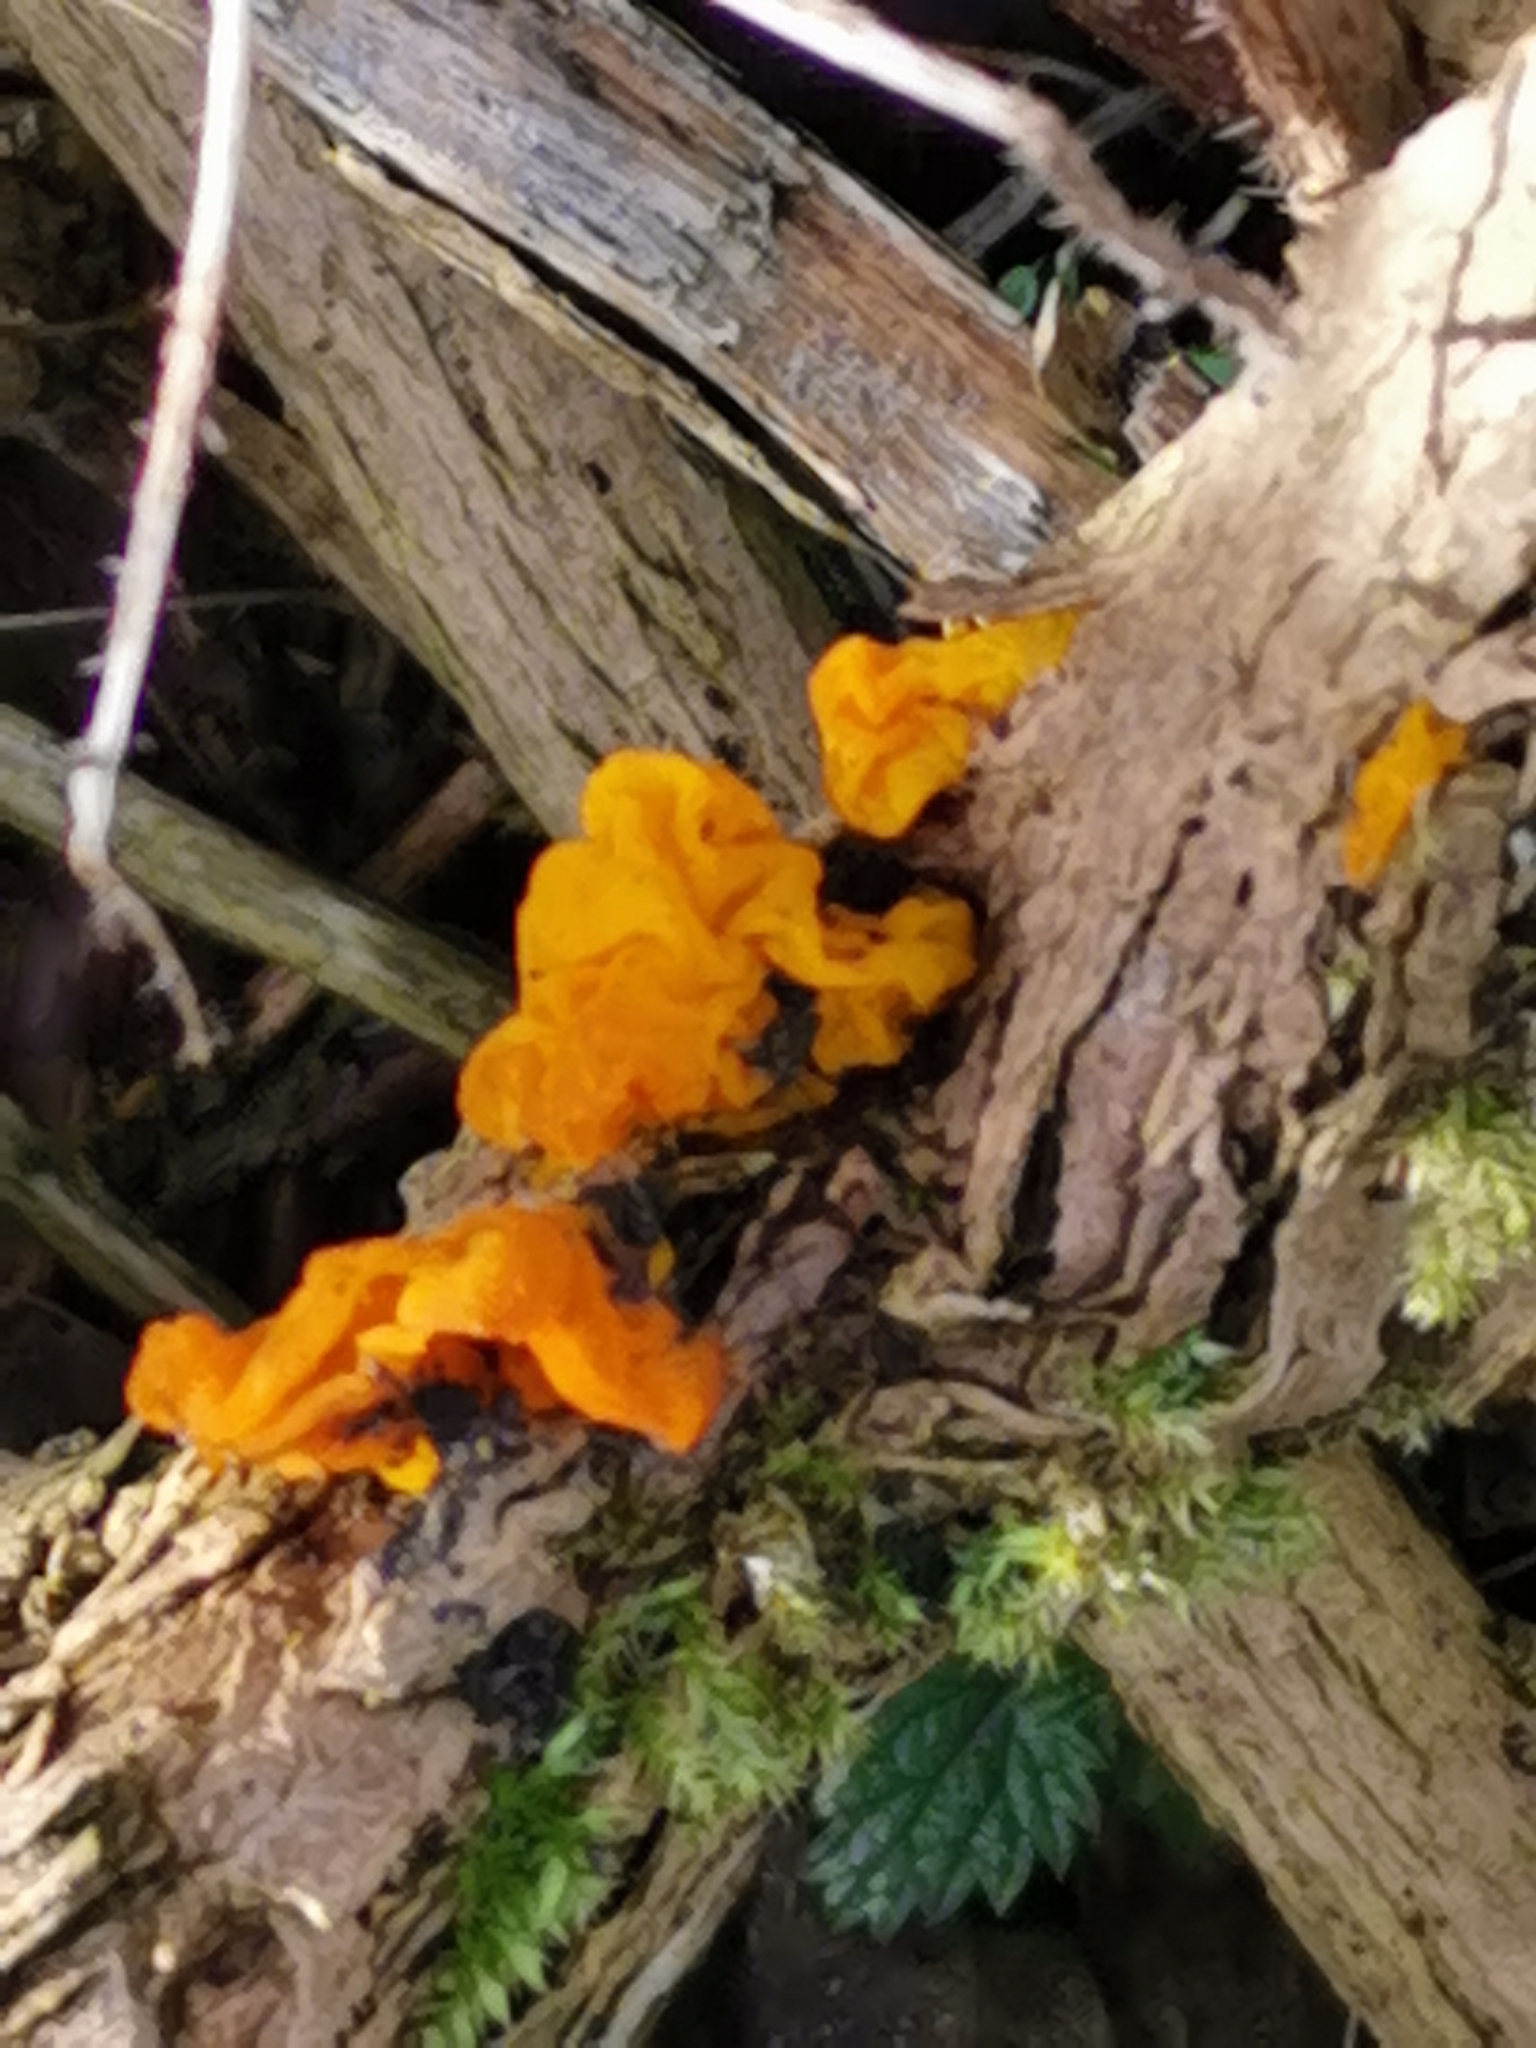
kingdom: Fungi
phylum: Basidiomycota
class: Tremellomycetes
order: Tremellales
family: Tremellaceae
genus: Tremella
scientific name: Tremella mesenterica
